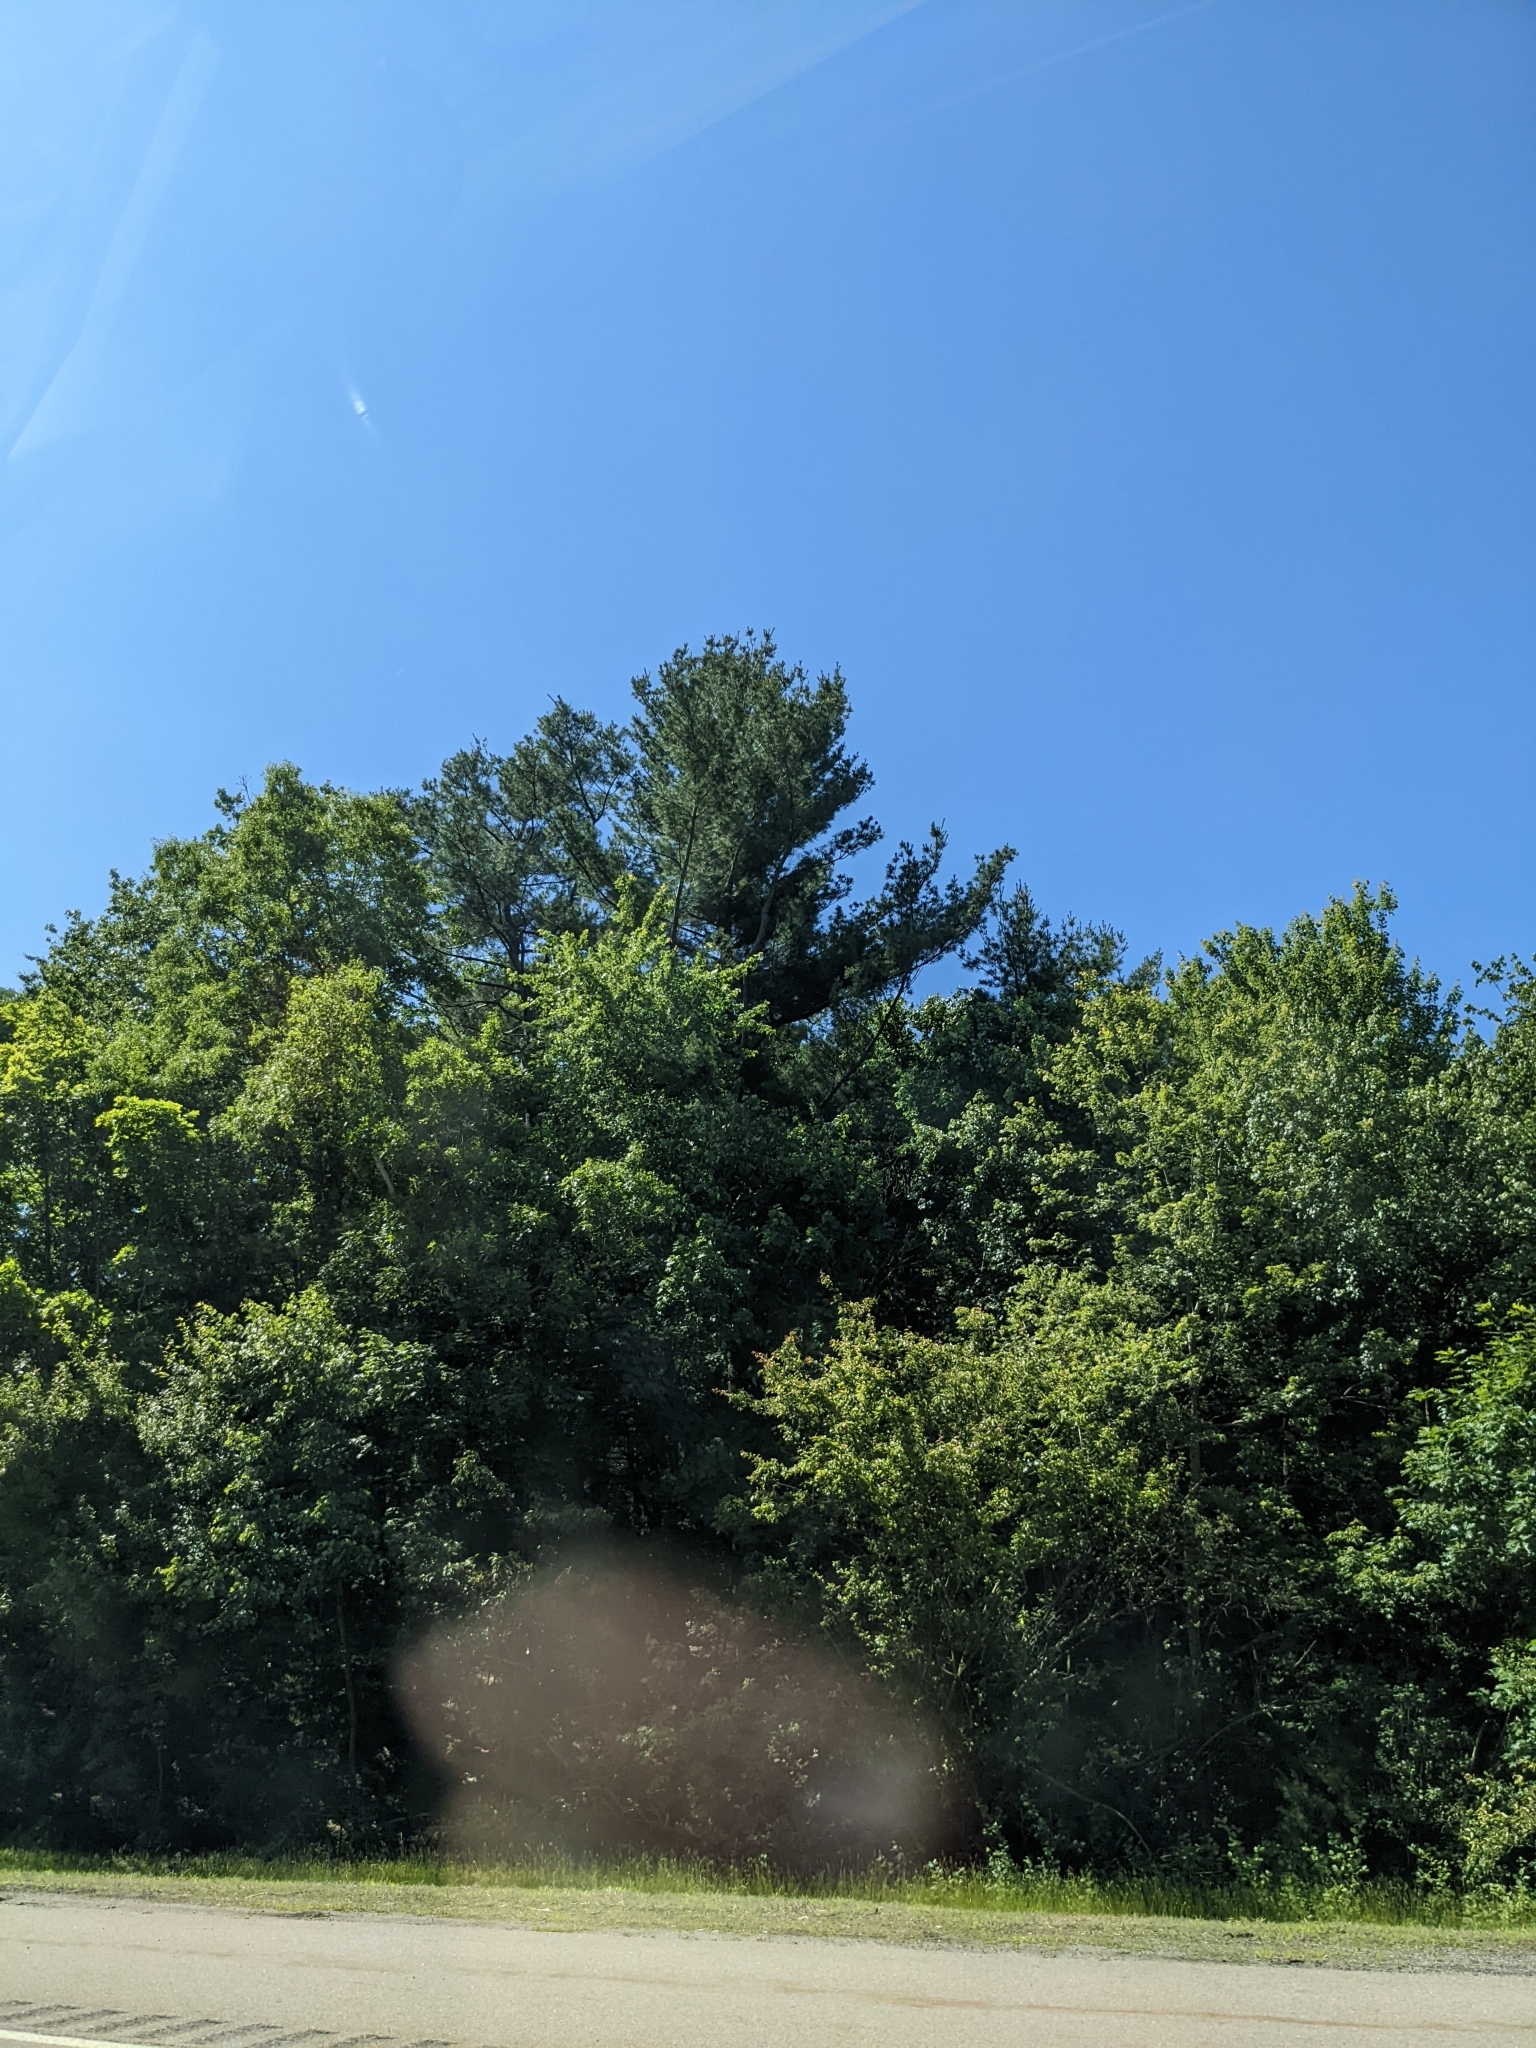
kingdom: Plantae
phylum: Tracheophyta
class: Pinopsida
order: Pinales
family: Pinaceae
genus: Pinus
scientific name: Pinus strobus
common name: Weymouth pine
